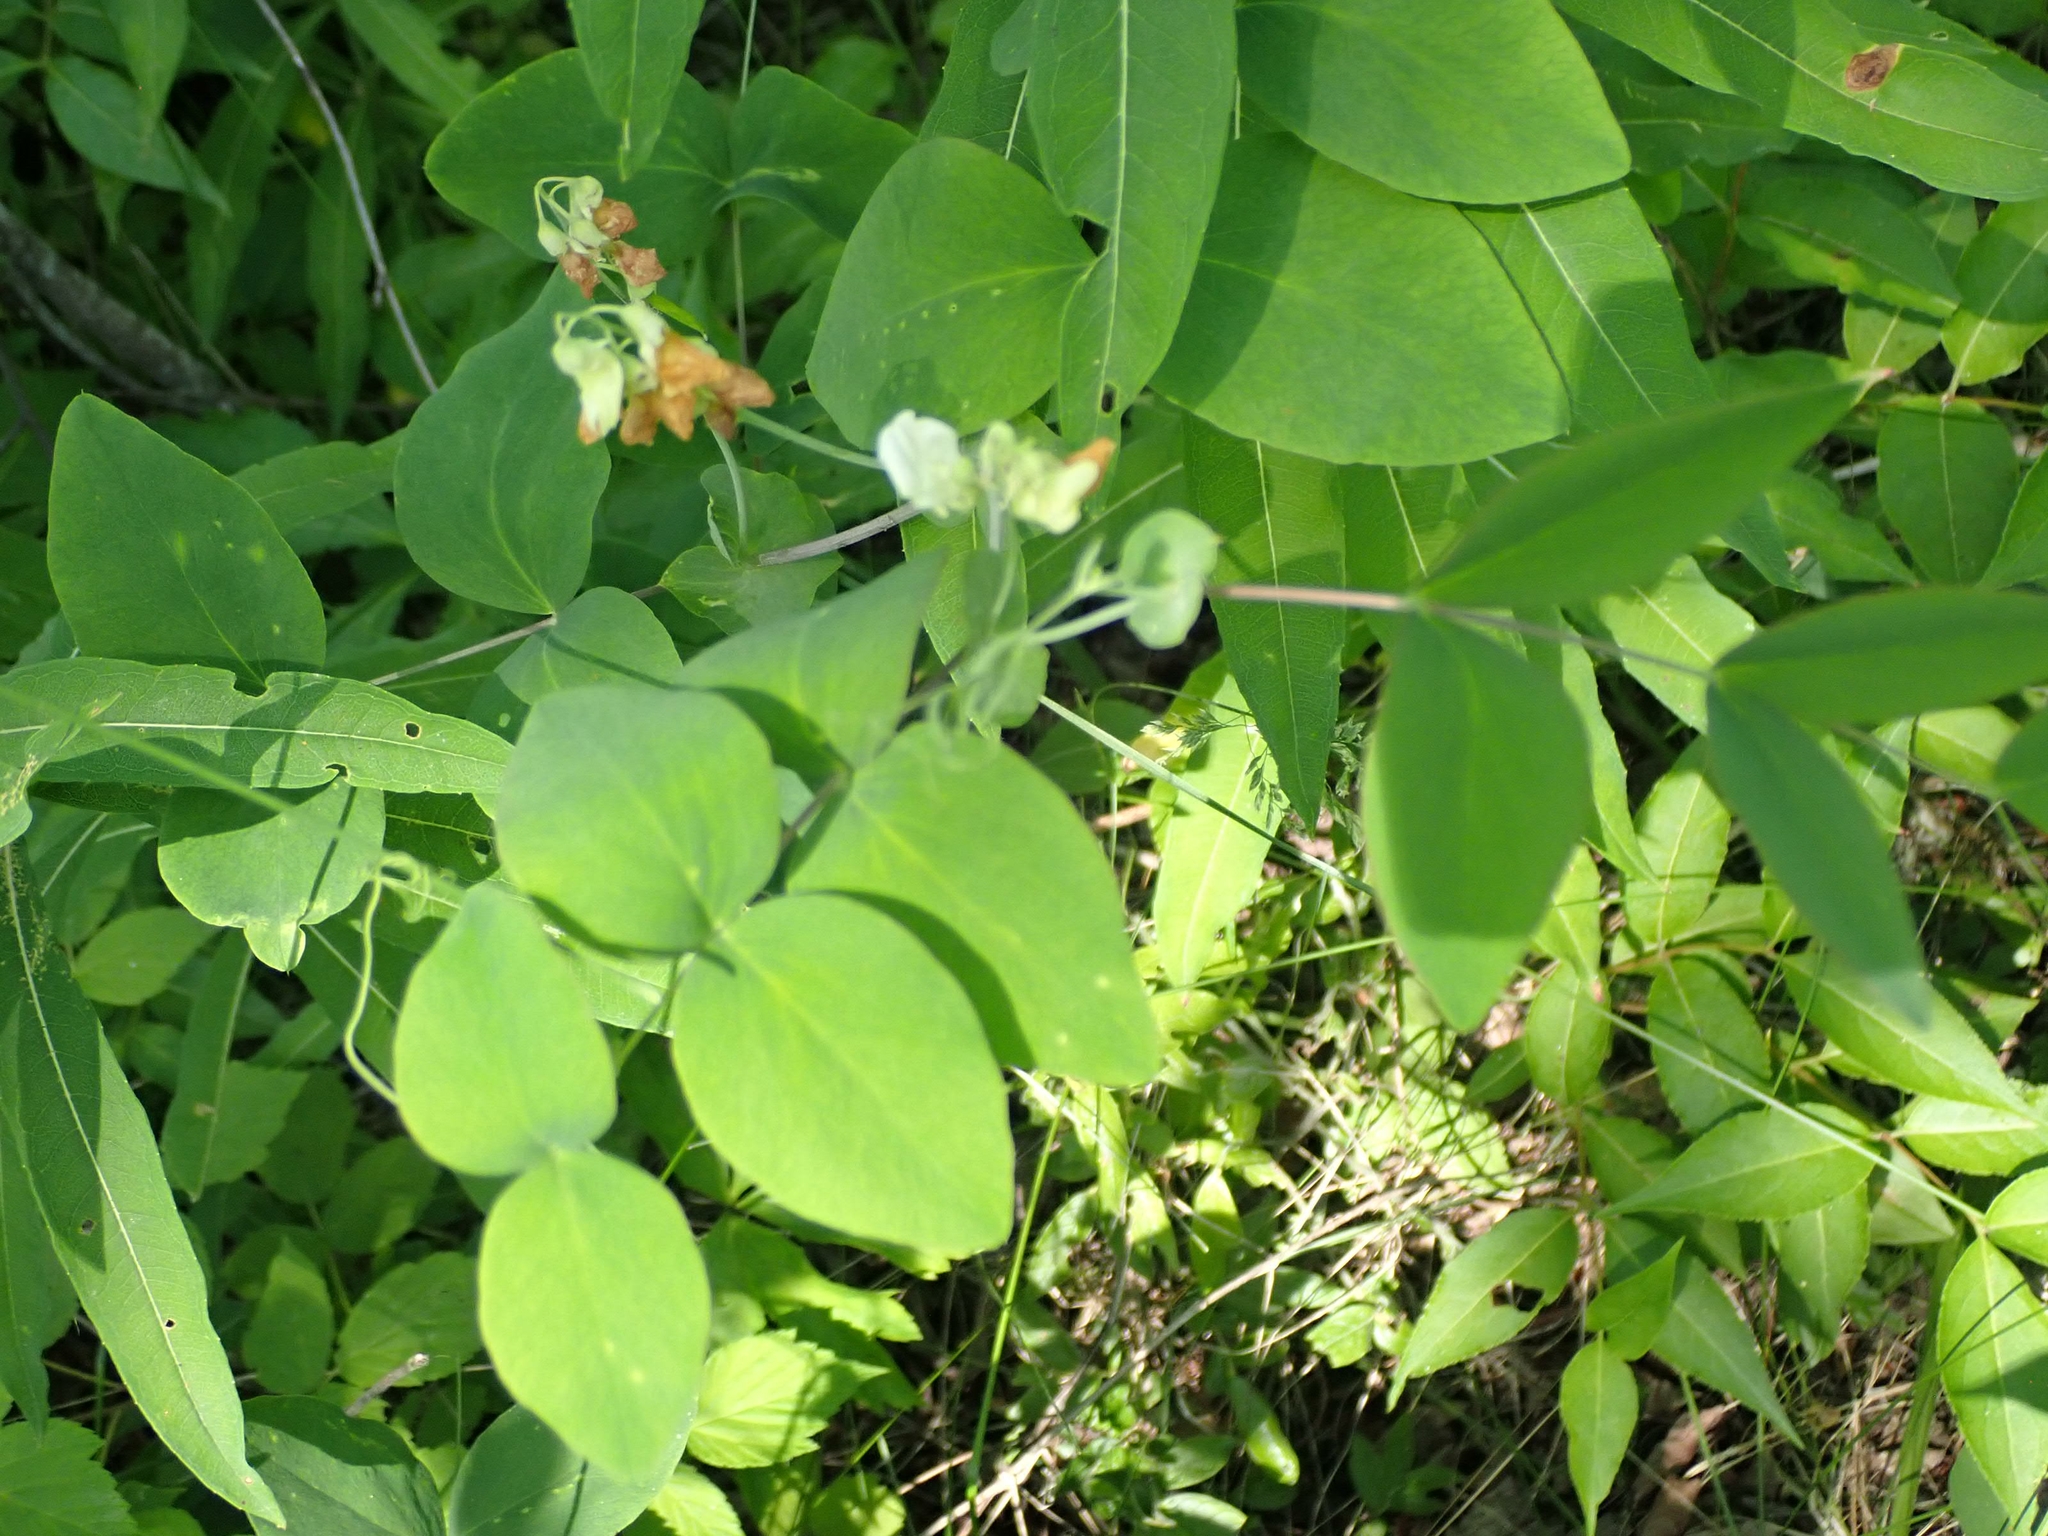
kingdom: Plantae
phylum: Tracheophyta
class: Magnoliopsida
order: Fabales
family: Fabaceae
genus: Lathyrus
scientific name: Lathyrus ochroleucus
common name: Pale vetchling
